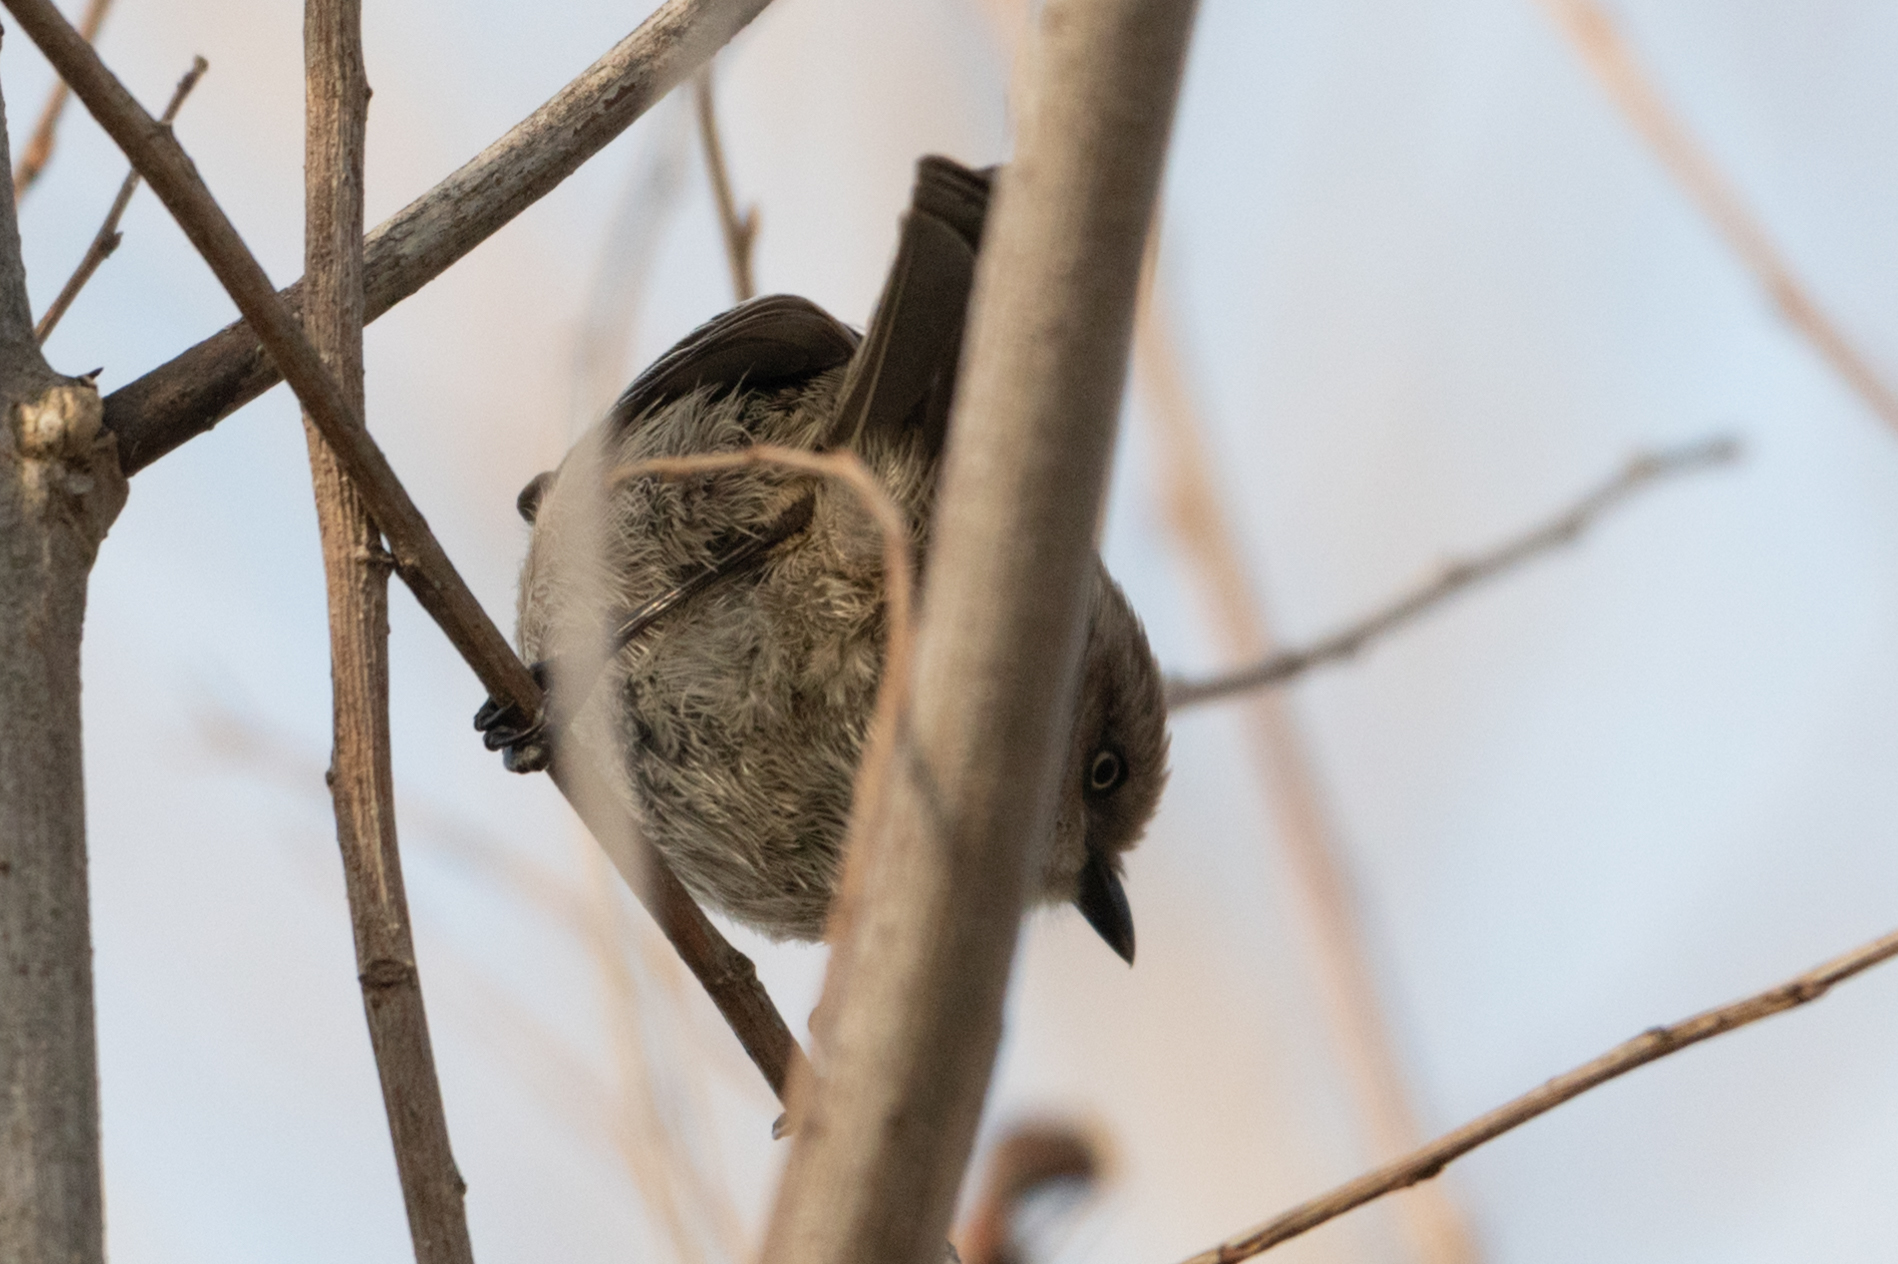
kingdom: Animalia
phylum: Chordata
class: Aves
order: Passeriformes
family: Aegithalidae
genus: Psaltriparus
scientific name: Psaltriparus minimus
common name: American bushtit
